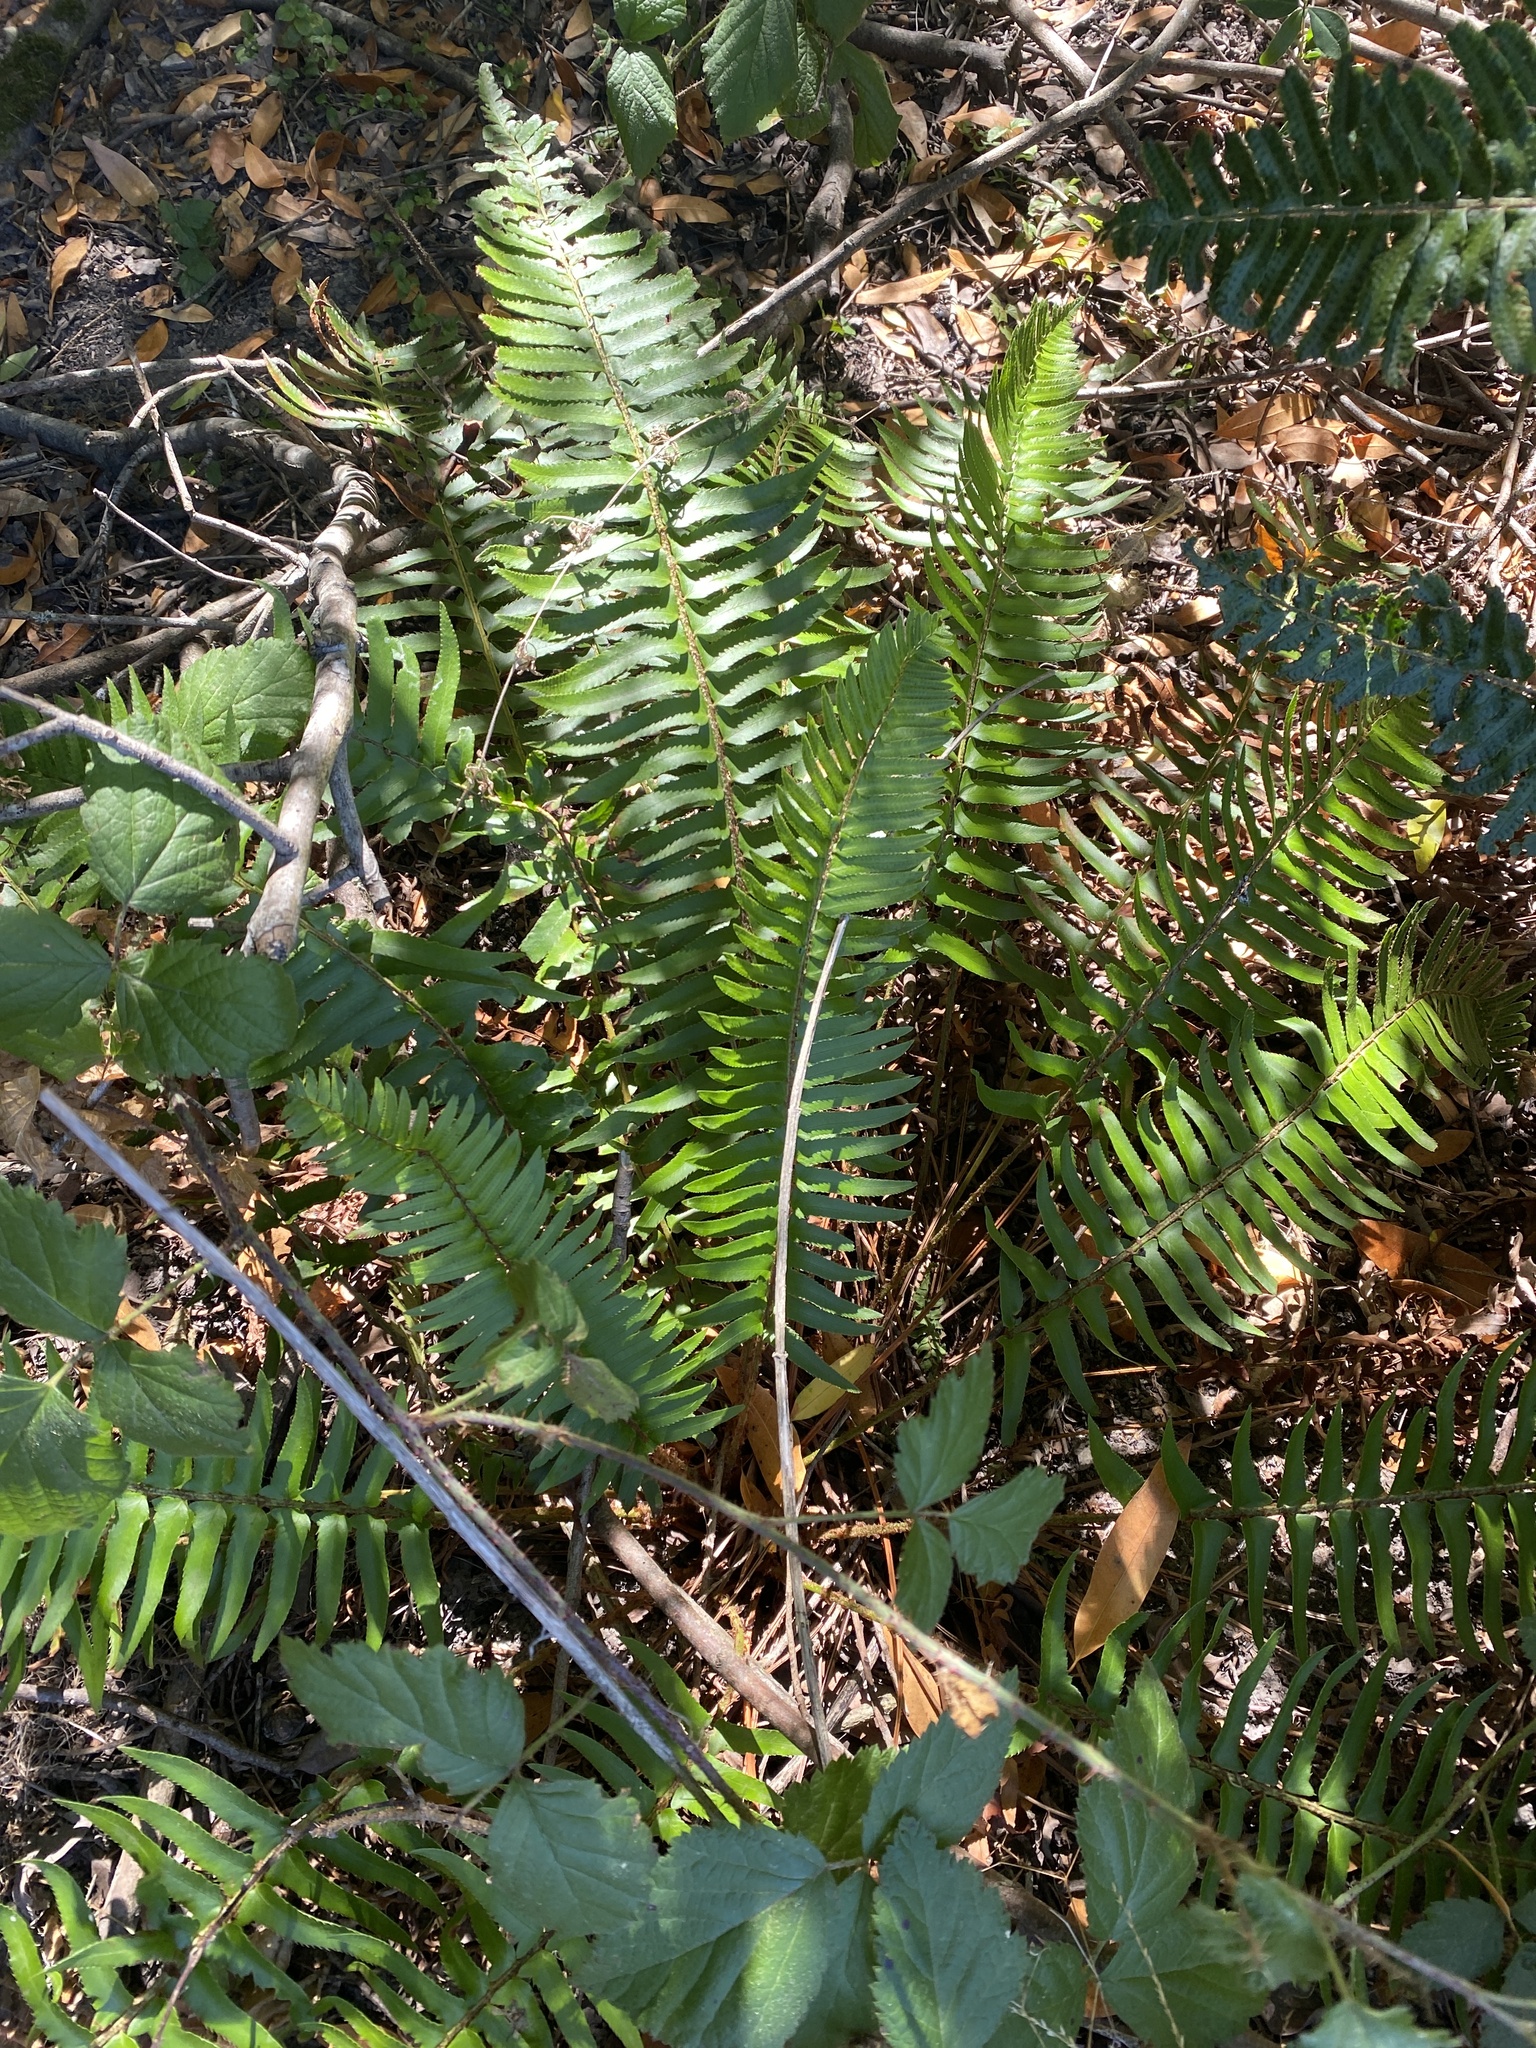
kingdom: Plantae
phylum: Tracheophyta
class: Polypodiopsida
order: Polypodiales
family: Dryopteridaceae
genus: Polystichum
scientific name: Polystichum munitum
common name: Western sword-fern
